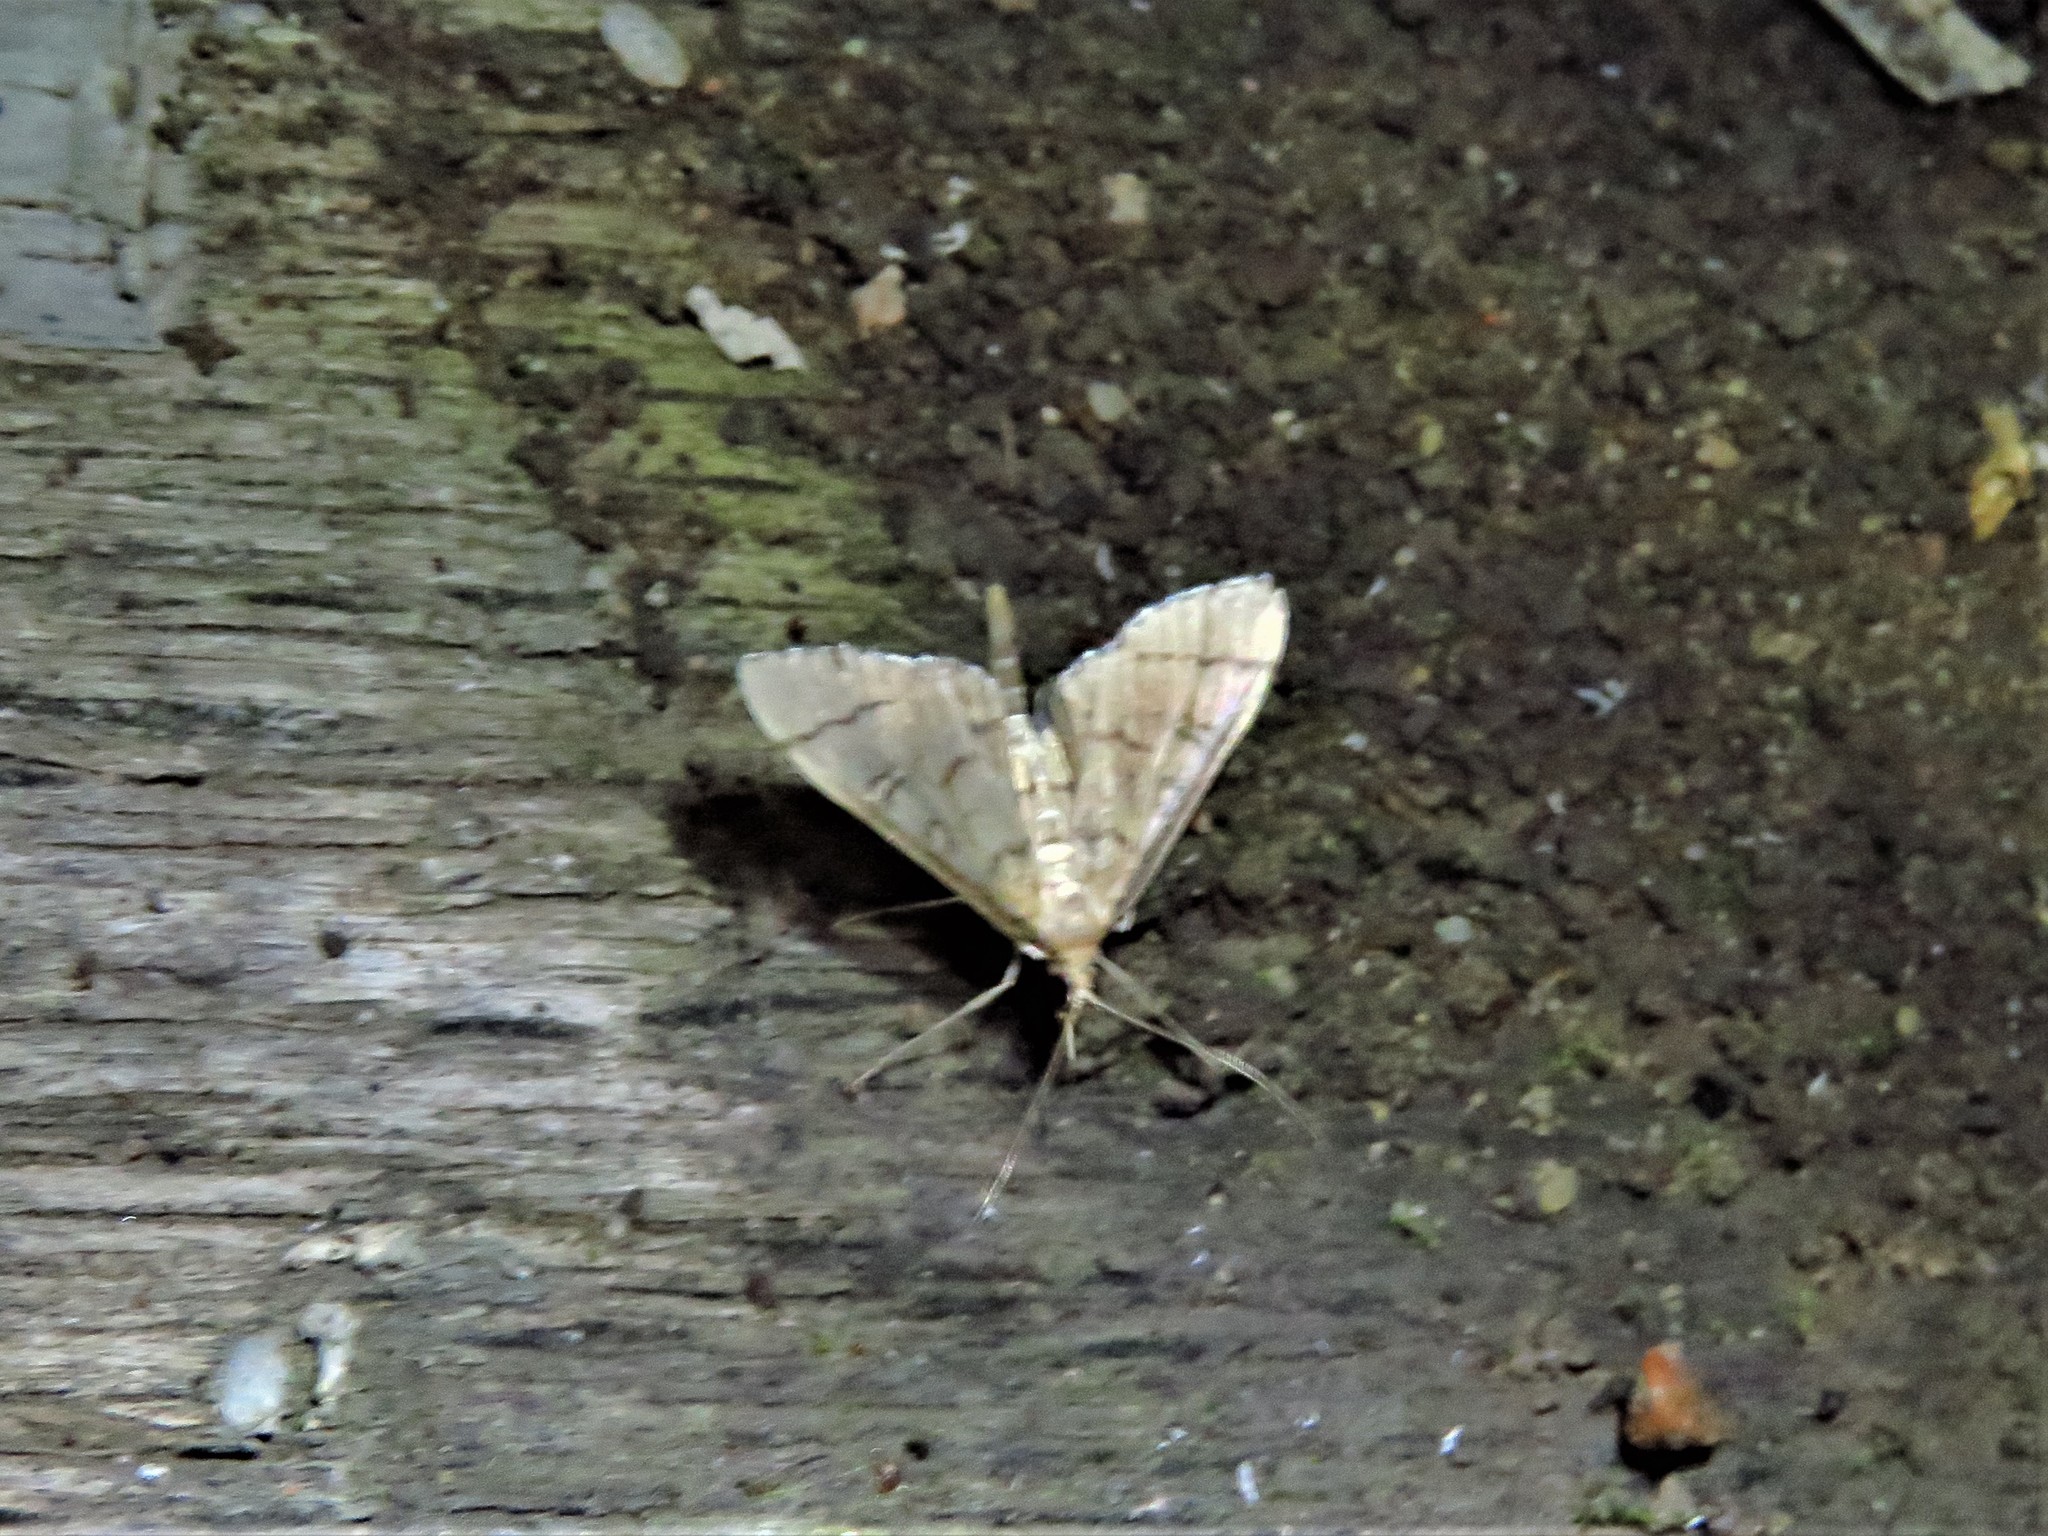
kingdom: Animalia
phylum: Arthropoda
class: Insecta
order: Lepidoptera
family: Crambidae
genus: Lamprosema
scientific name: Lamprosema Blepharomastix ranalis
